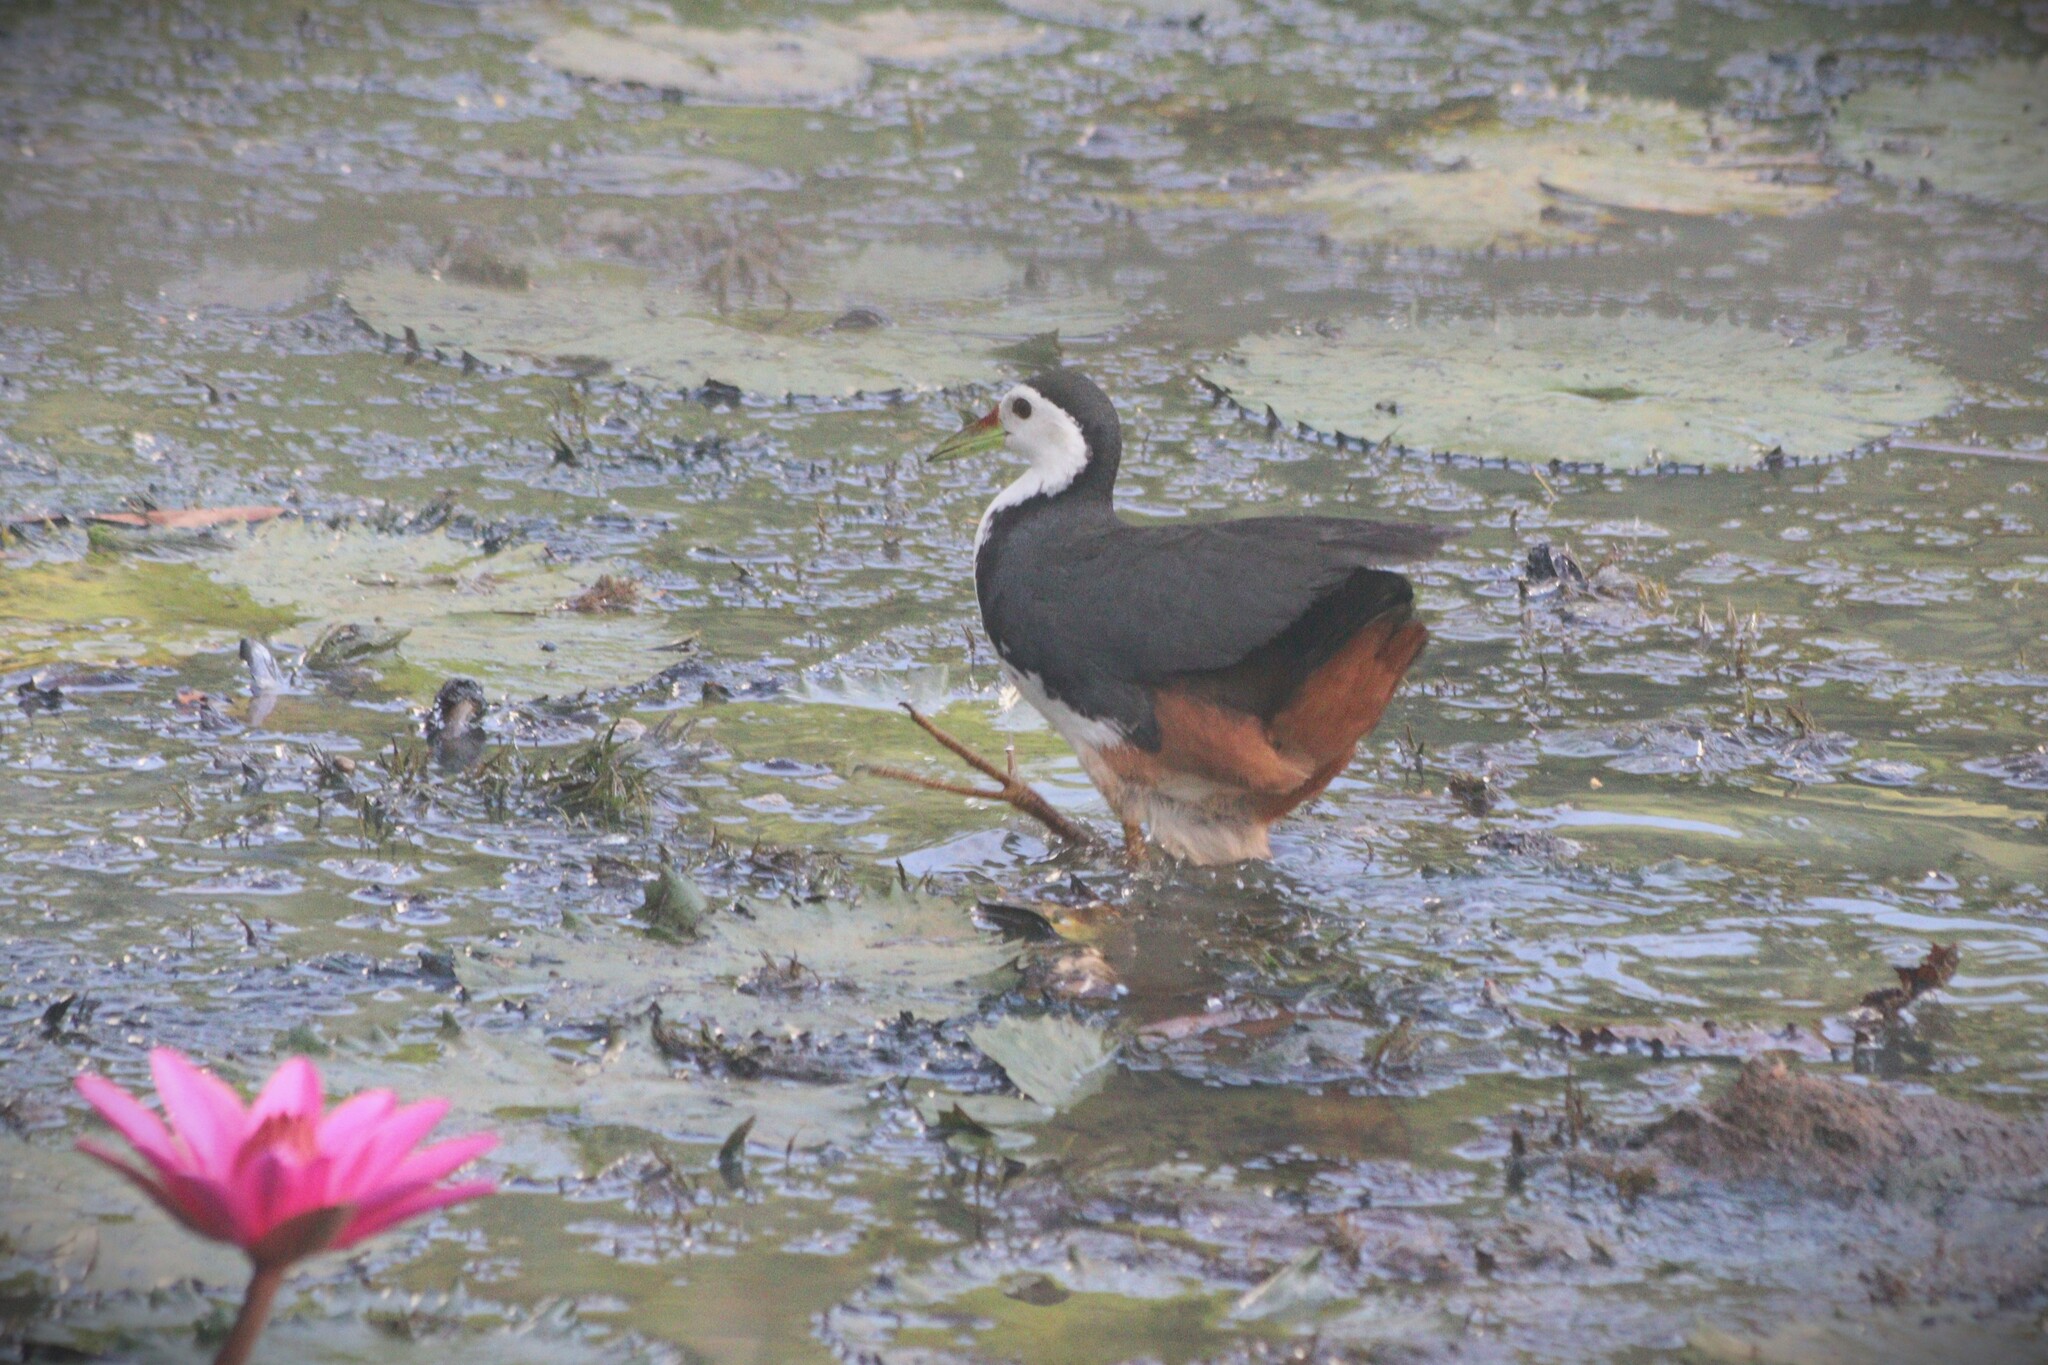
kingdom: Animalia
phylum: Chordata
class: Aves
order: Gruiformes
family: Rallidae
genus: Amaurornis
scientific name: Amaurornis phoenicurus
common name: White-breasted waterhen
